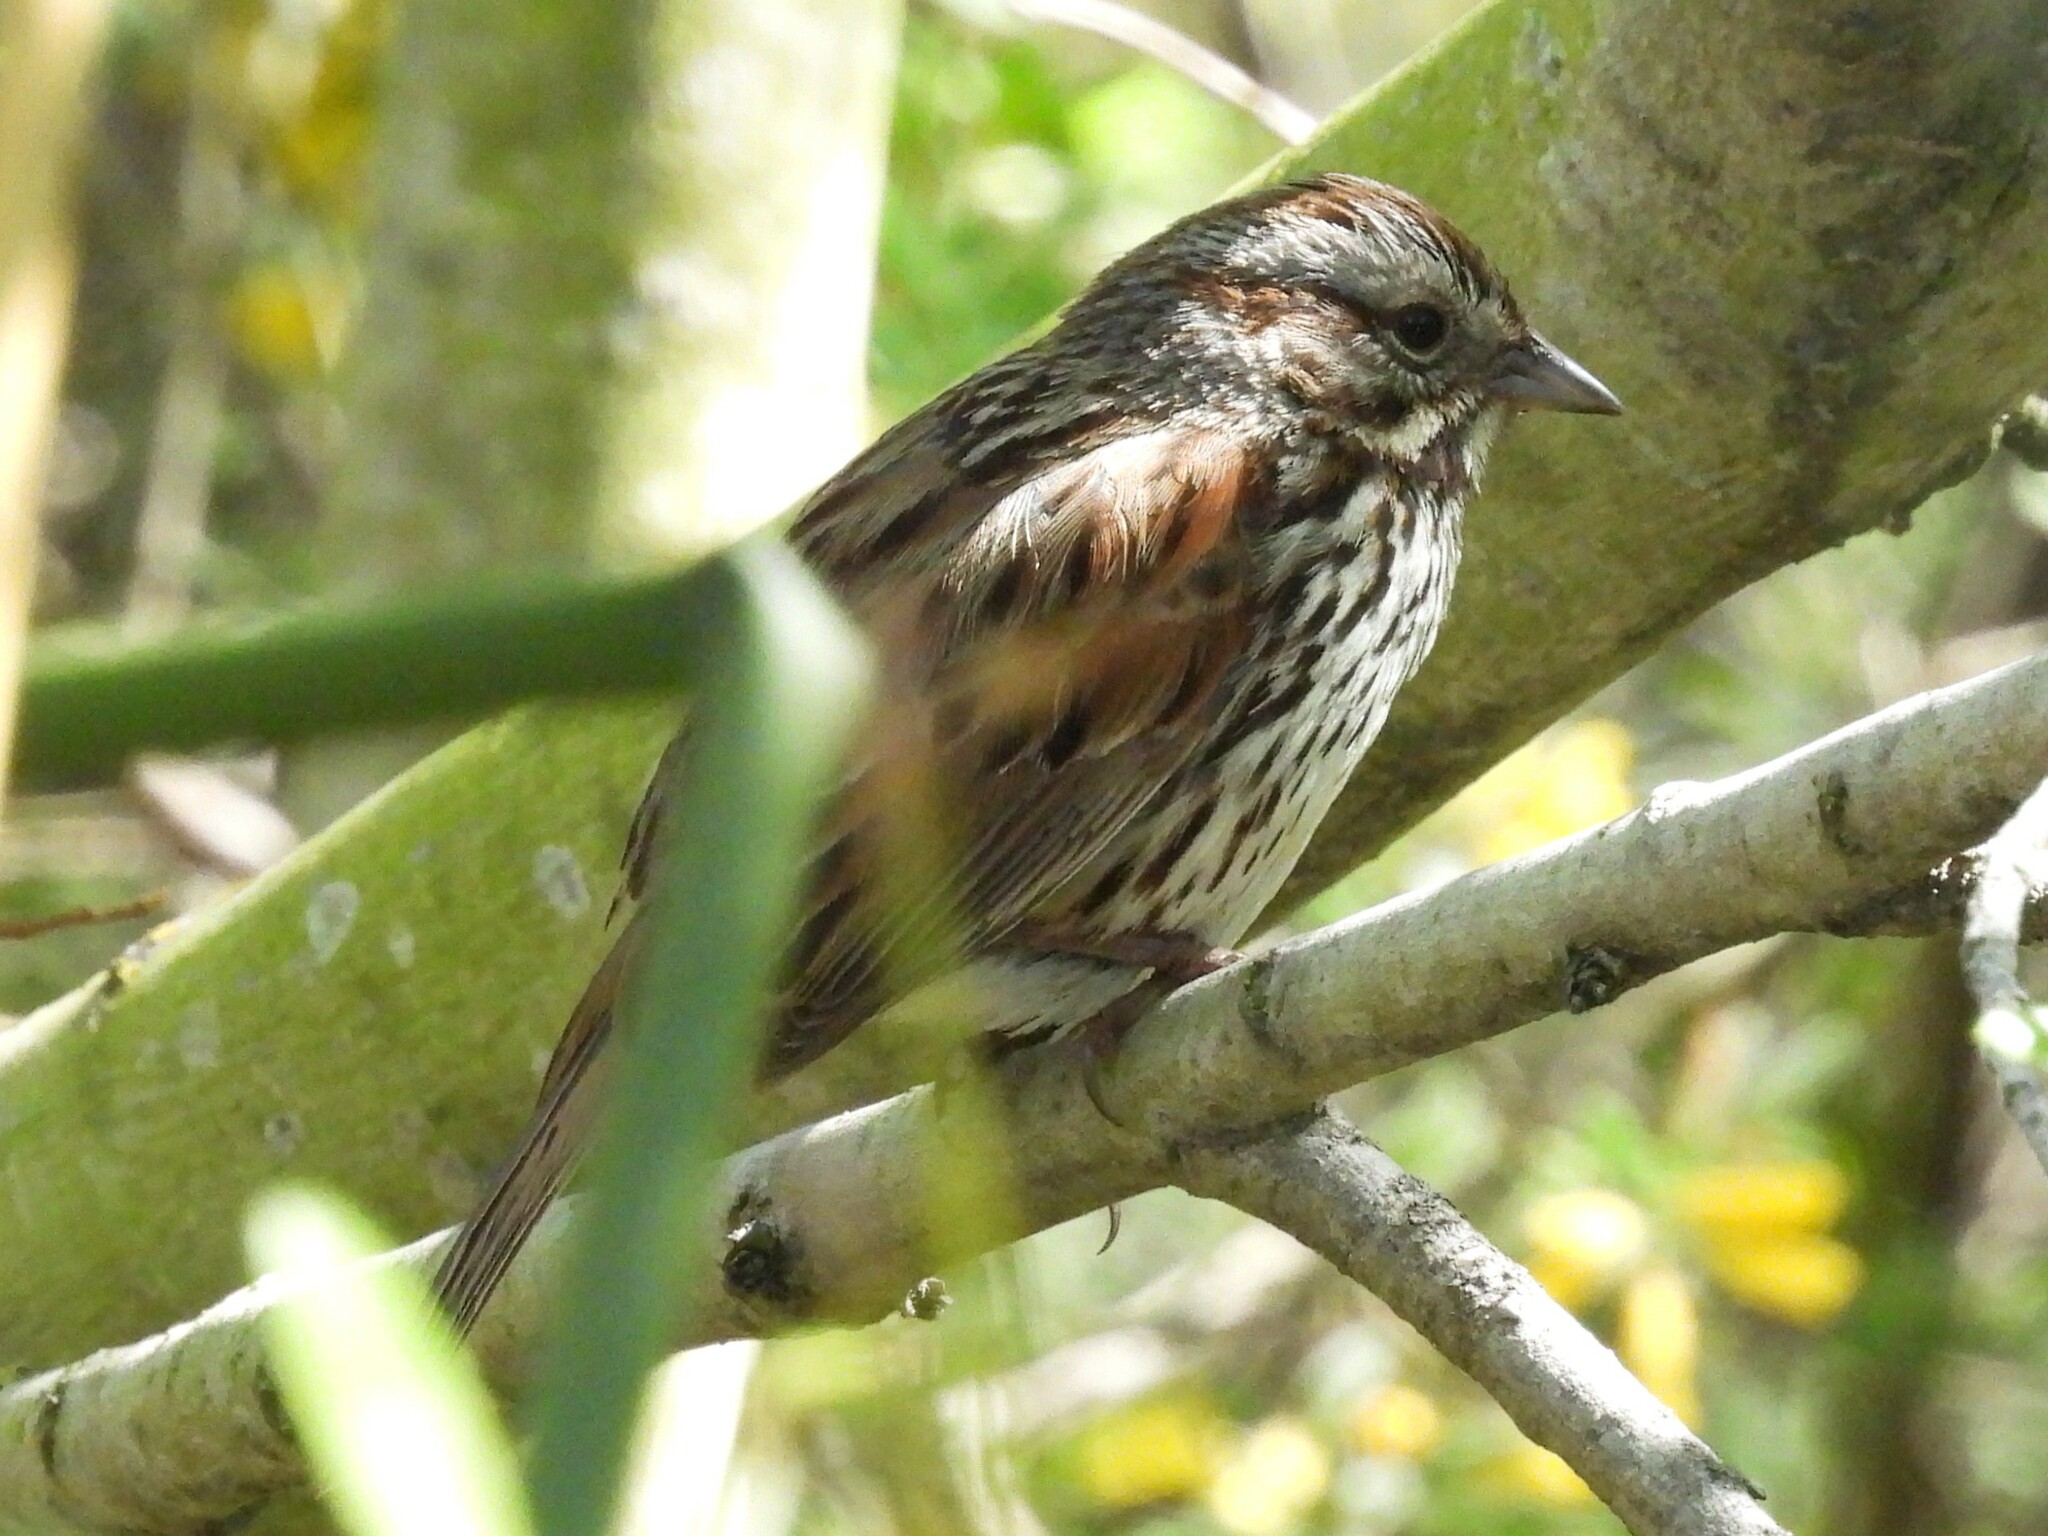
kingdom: Animalia
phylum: Chordata
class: Aves
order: Passeriformes
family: Passerellidae
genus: Melospiza
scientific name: Melospiza melodia
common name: Song sparrow
